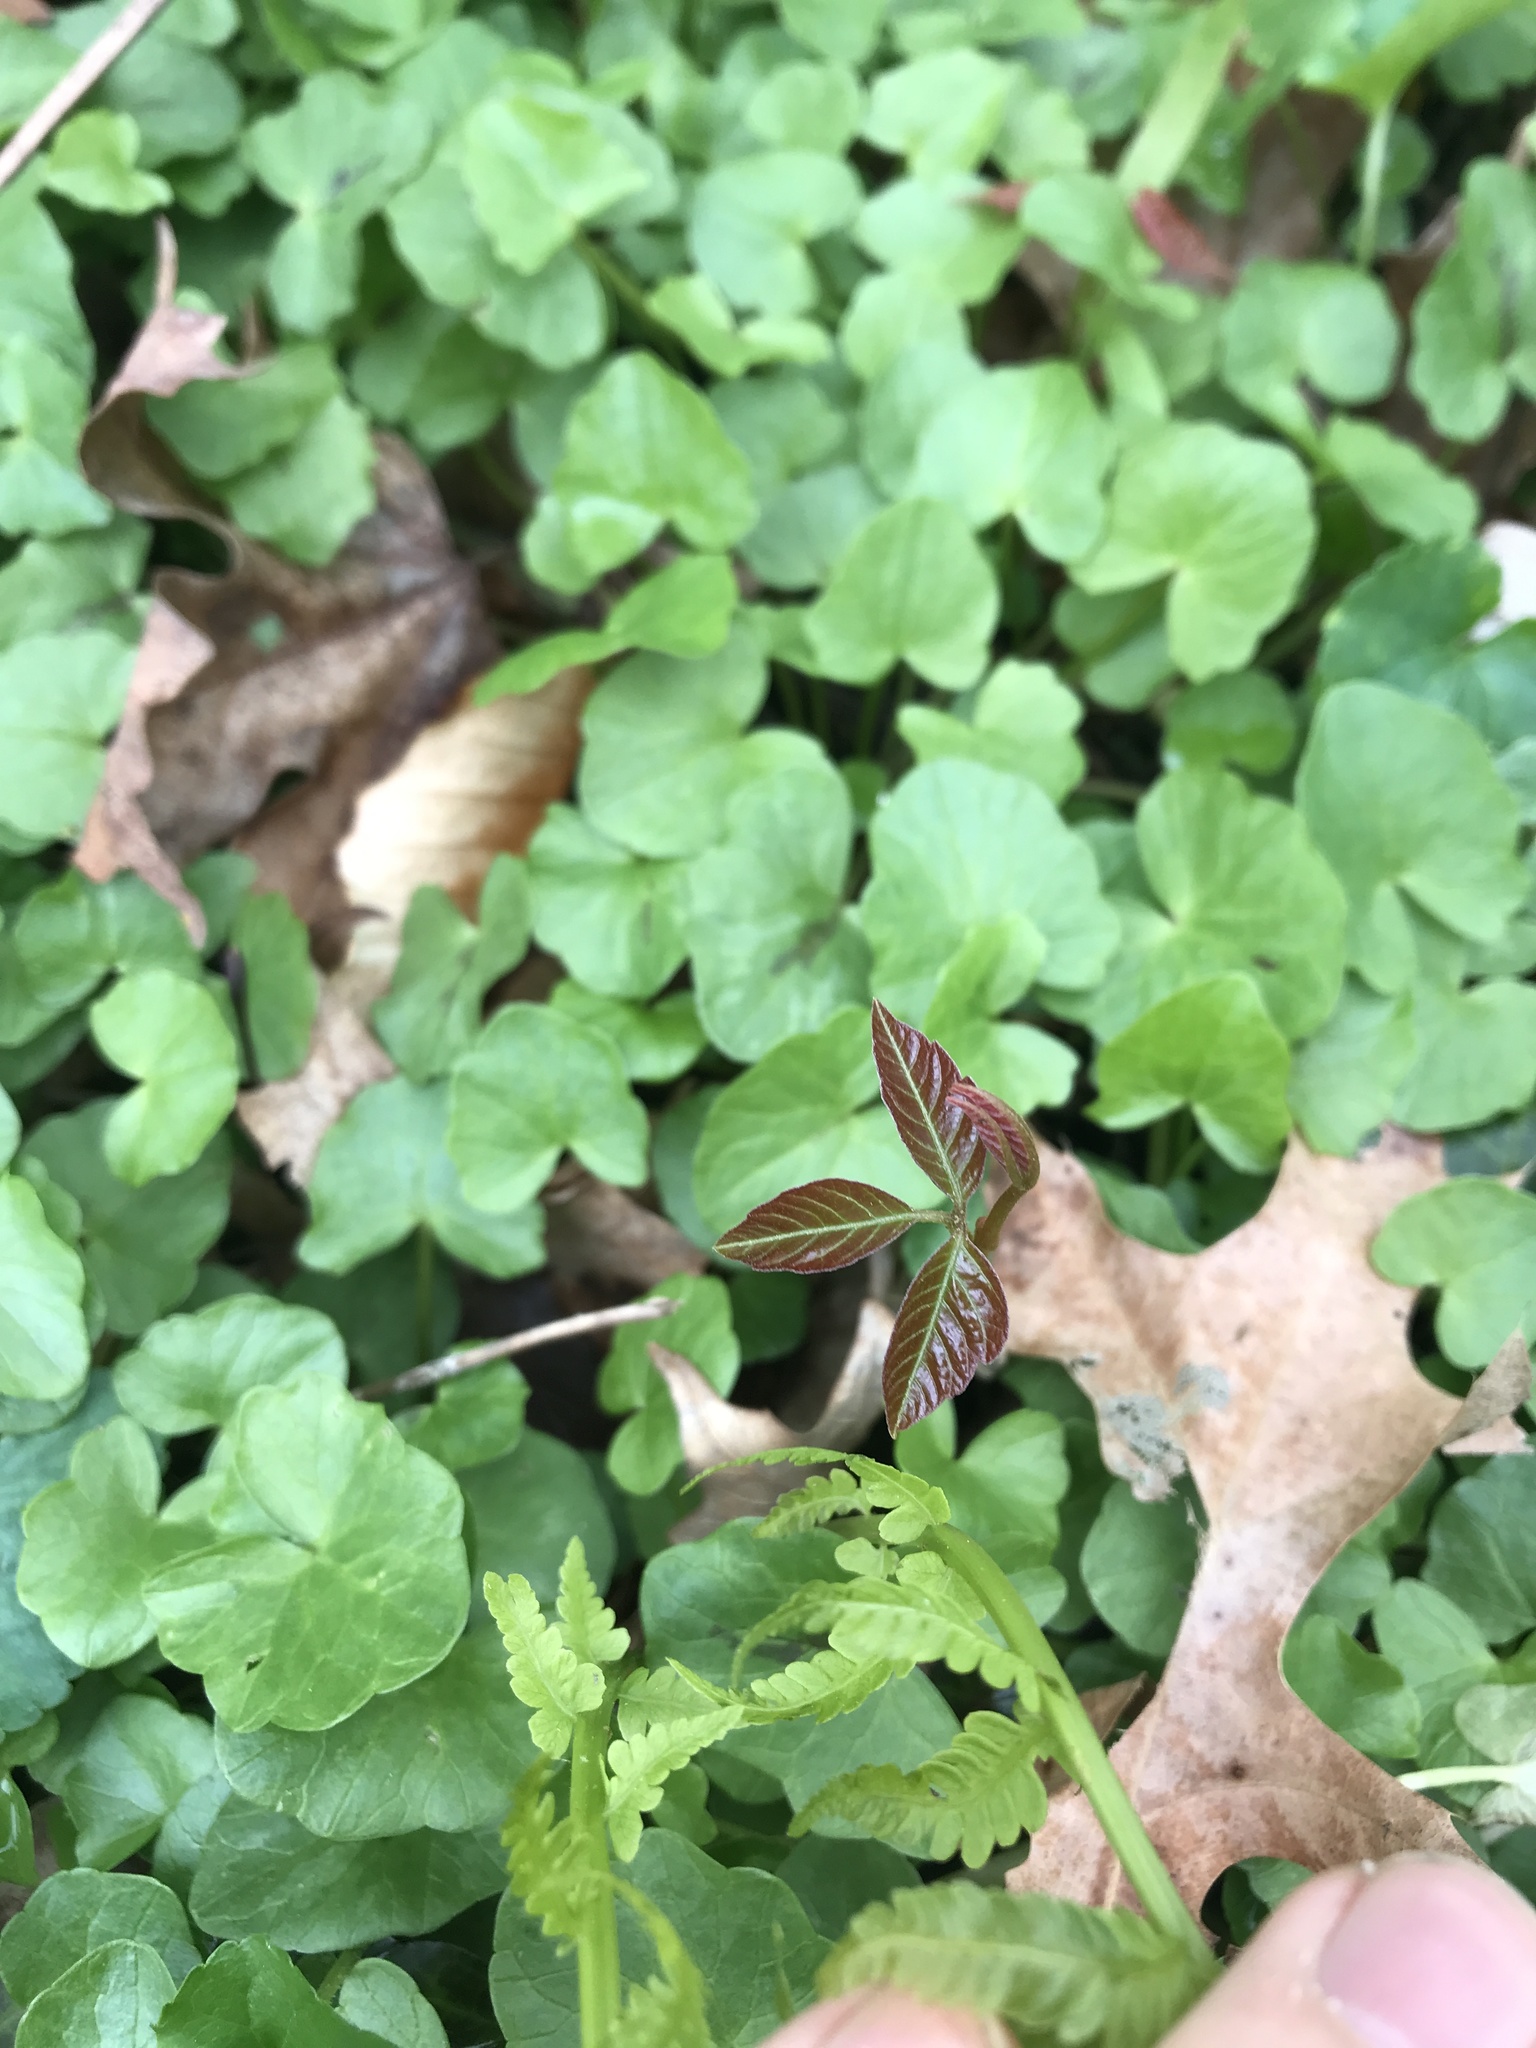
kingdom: Plantae
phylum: Tracheophyta
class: Magnoliopsida
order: Sapindales
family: Anacardiaceae
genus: Toxicodendron
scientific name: Toxicodendron radicans
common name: Poison ivy
